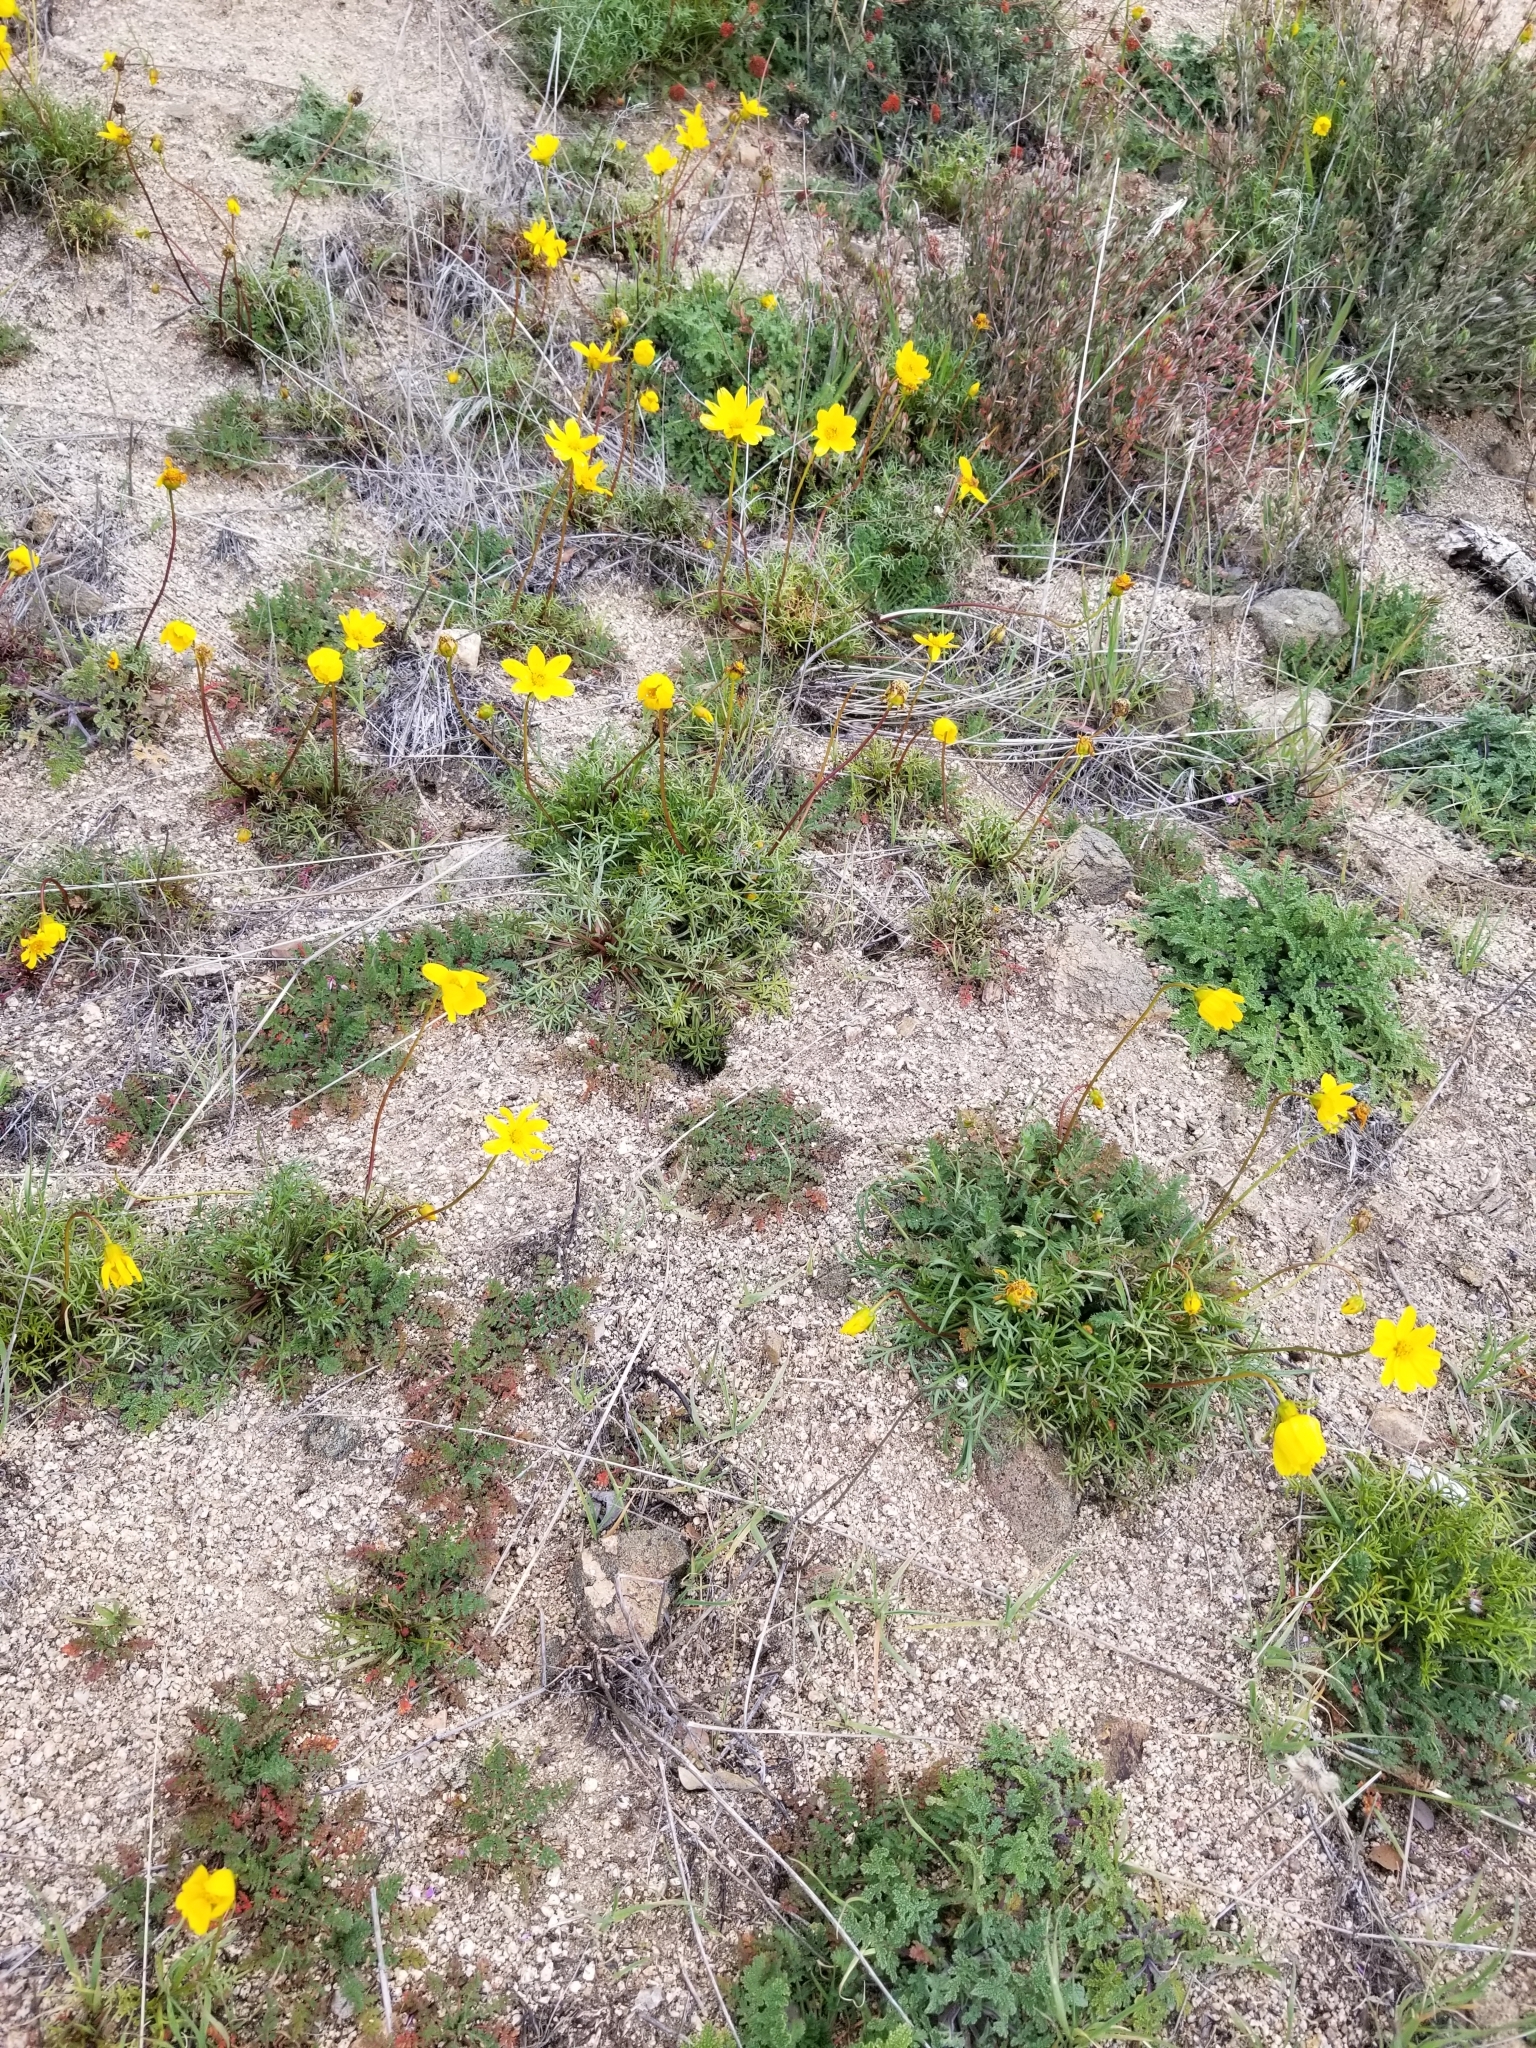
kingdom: Plantae
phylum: Tracheophyta
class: Magnoliopsida
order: Asterales
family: Asteraceae
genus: Coreopsis
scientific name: Coreopsis bigelovii
